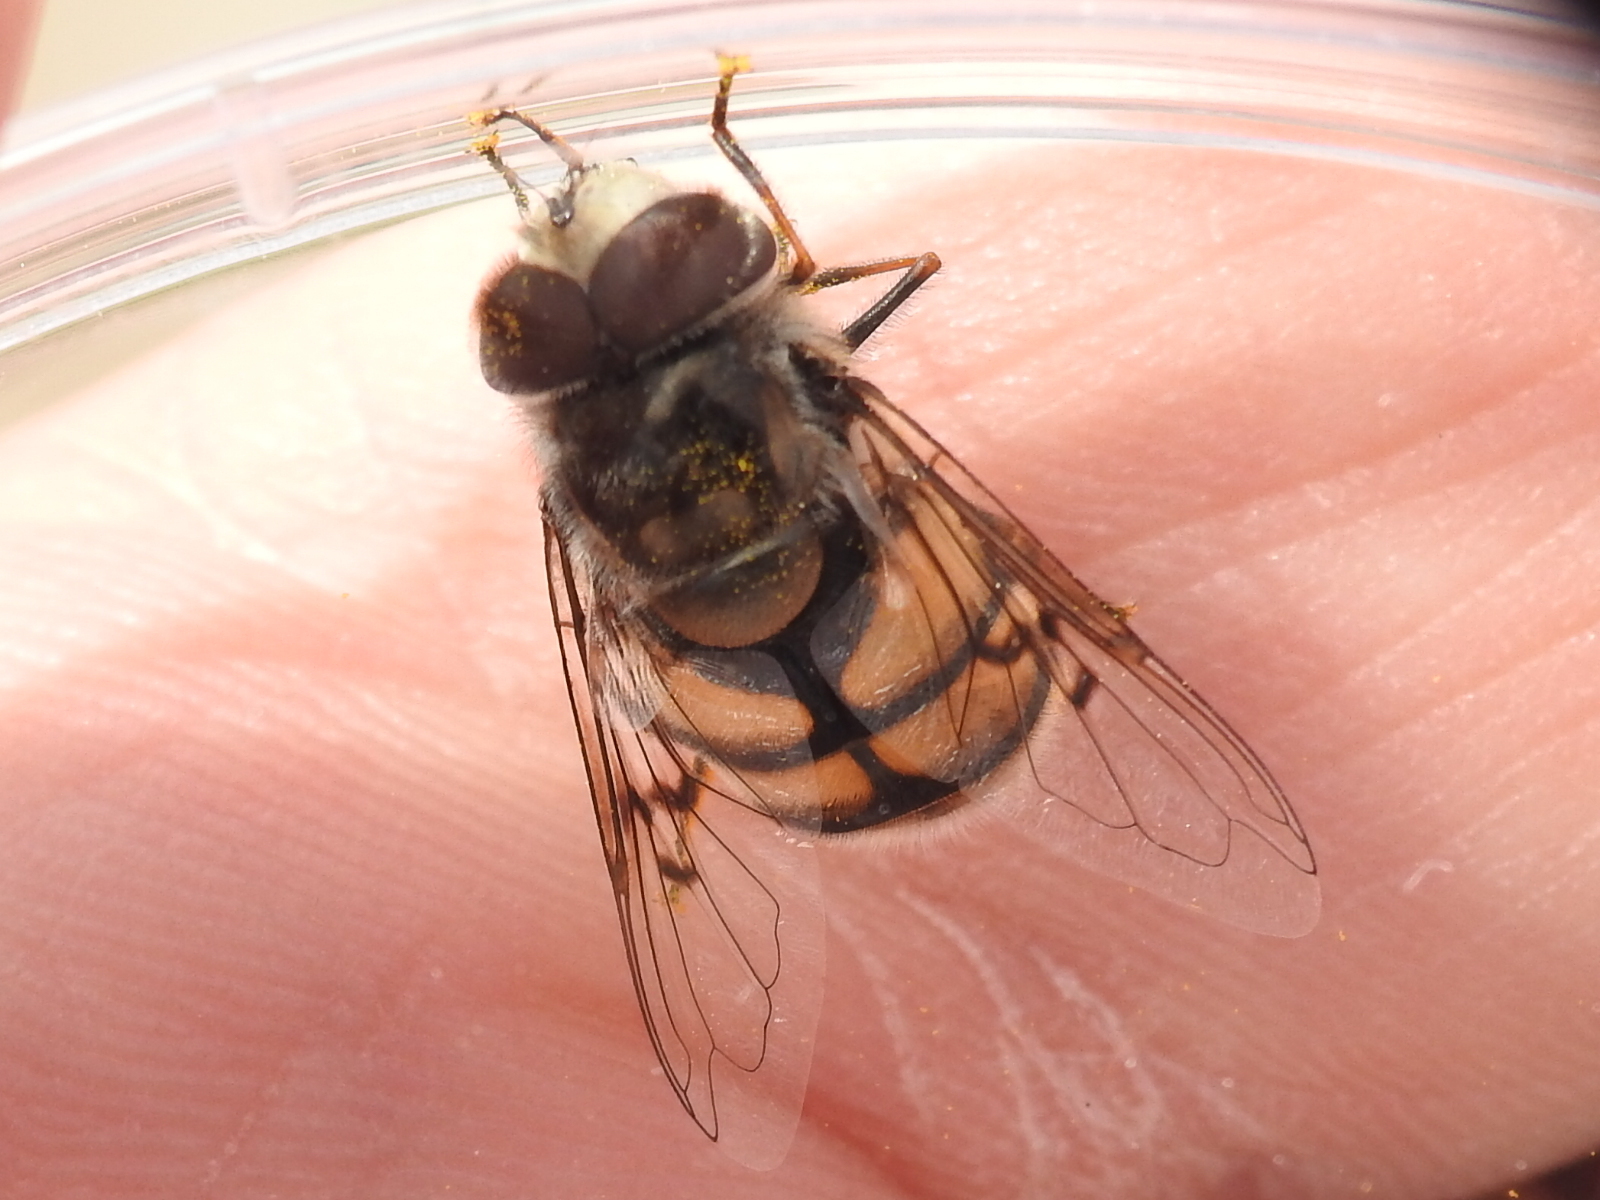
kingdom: Animalia
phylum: Arthropoda
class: Insecta
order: Diptera
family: Syrphidae
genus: Copestylum
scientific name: Copestylum avidum
